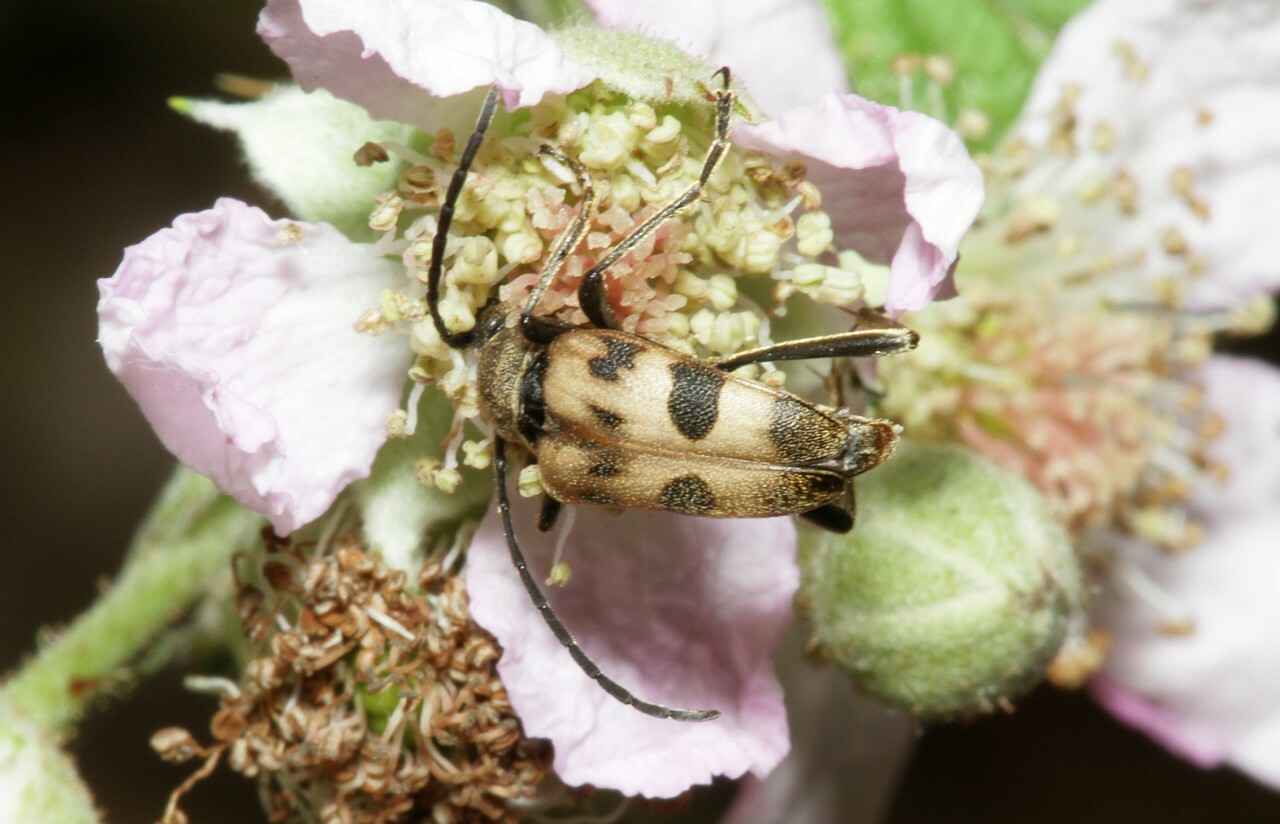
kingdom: Animalia
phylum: Arthropoda
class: Insecta
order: Coleoptera
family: Cerambycidae
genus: Pachytodes
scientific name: Pachytodes cerambyciformis
